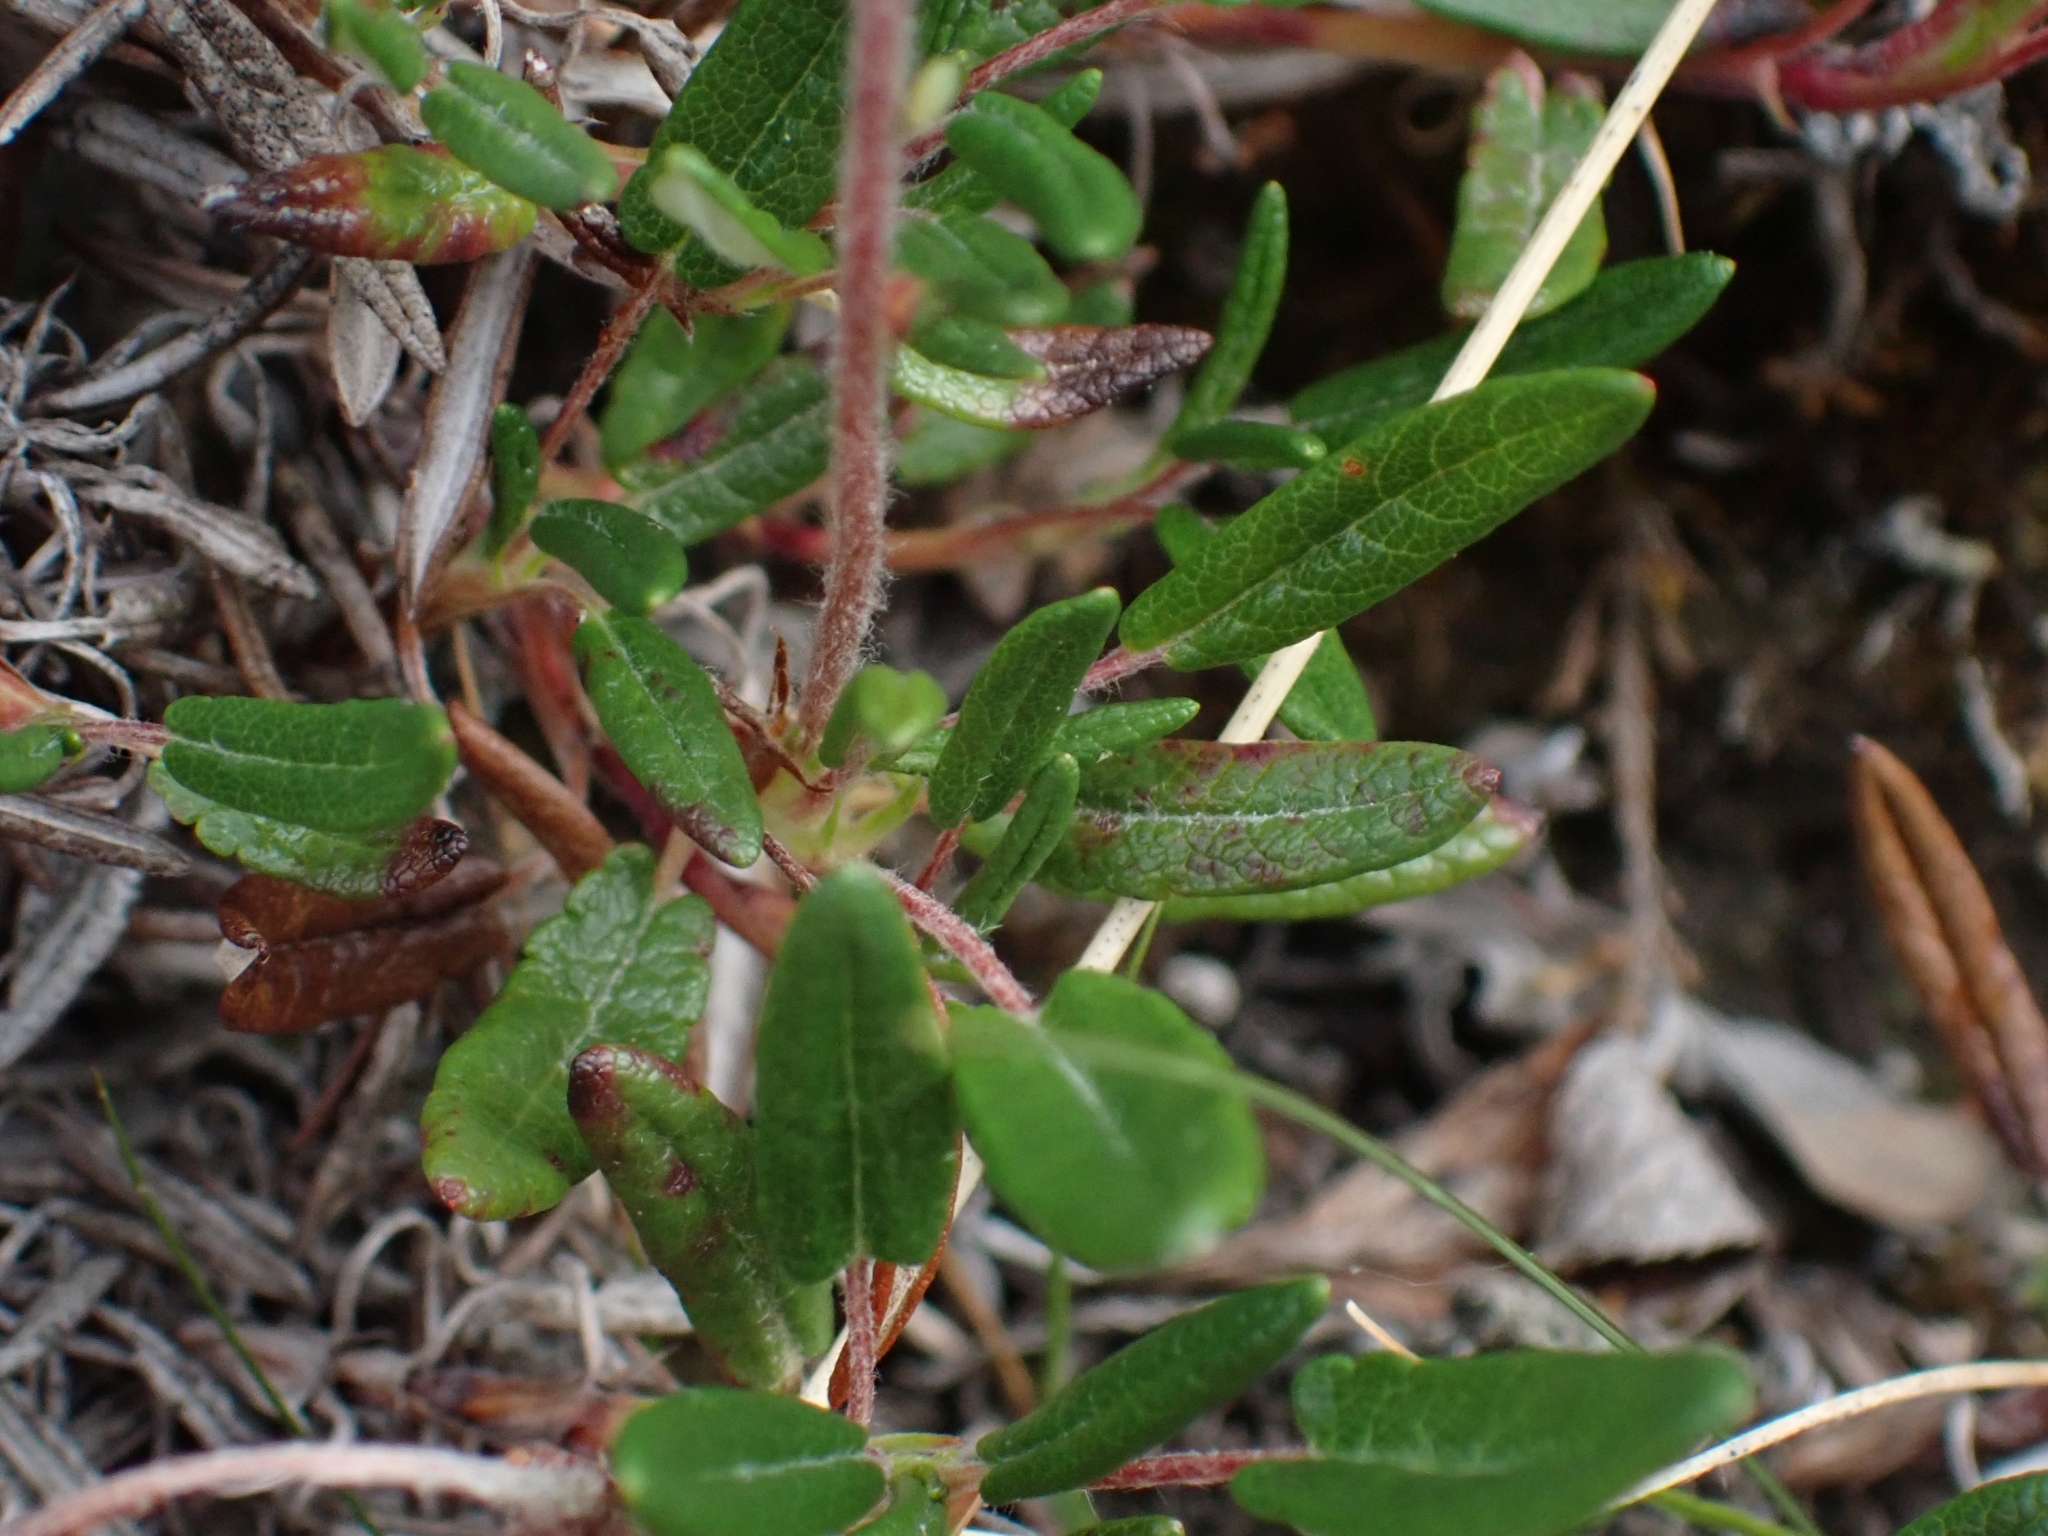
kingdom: Plantae
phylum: Tracheophyta
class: Magnoliopsida
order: Rosales
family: Rosaceae
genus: Dryas
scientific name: Dryas integrifolia
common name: Entire-leaved mountain avens
